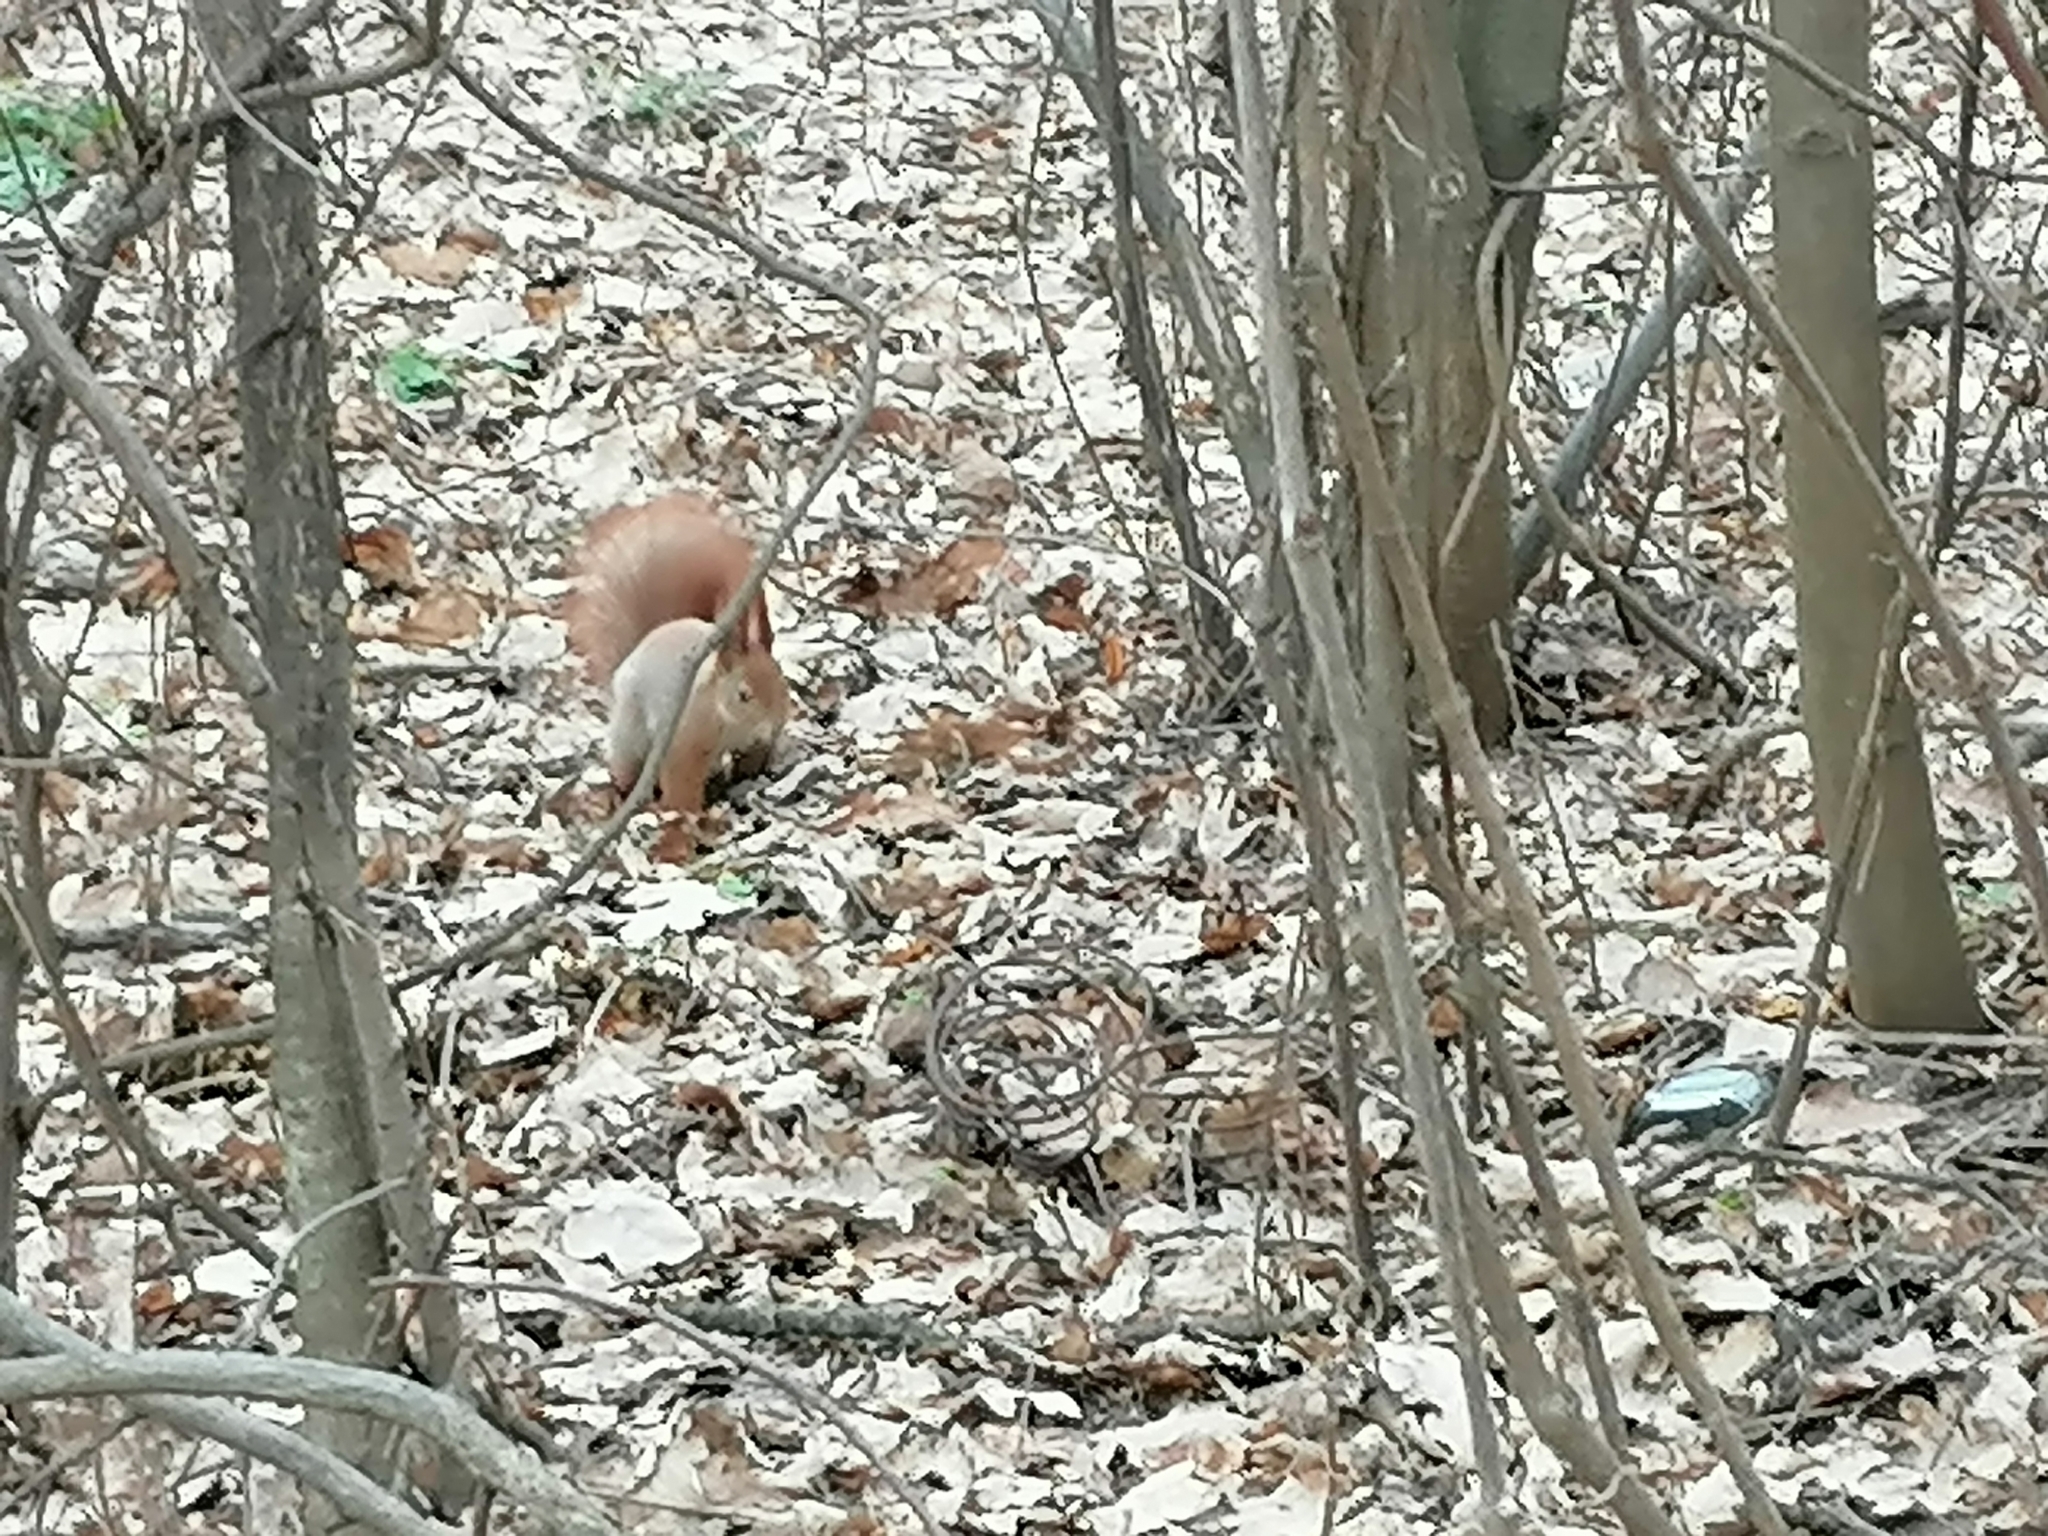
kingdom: Animalia
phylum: Chordata
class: Mammalia
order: Rodentia
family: Sciuridae
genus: Sciurus
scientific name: Sciurus vulgaris
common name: Eurasian red squirrel
